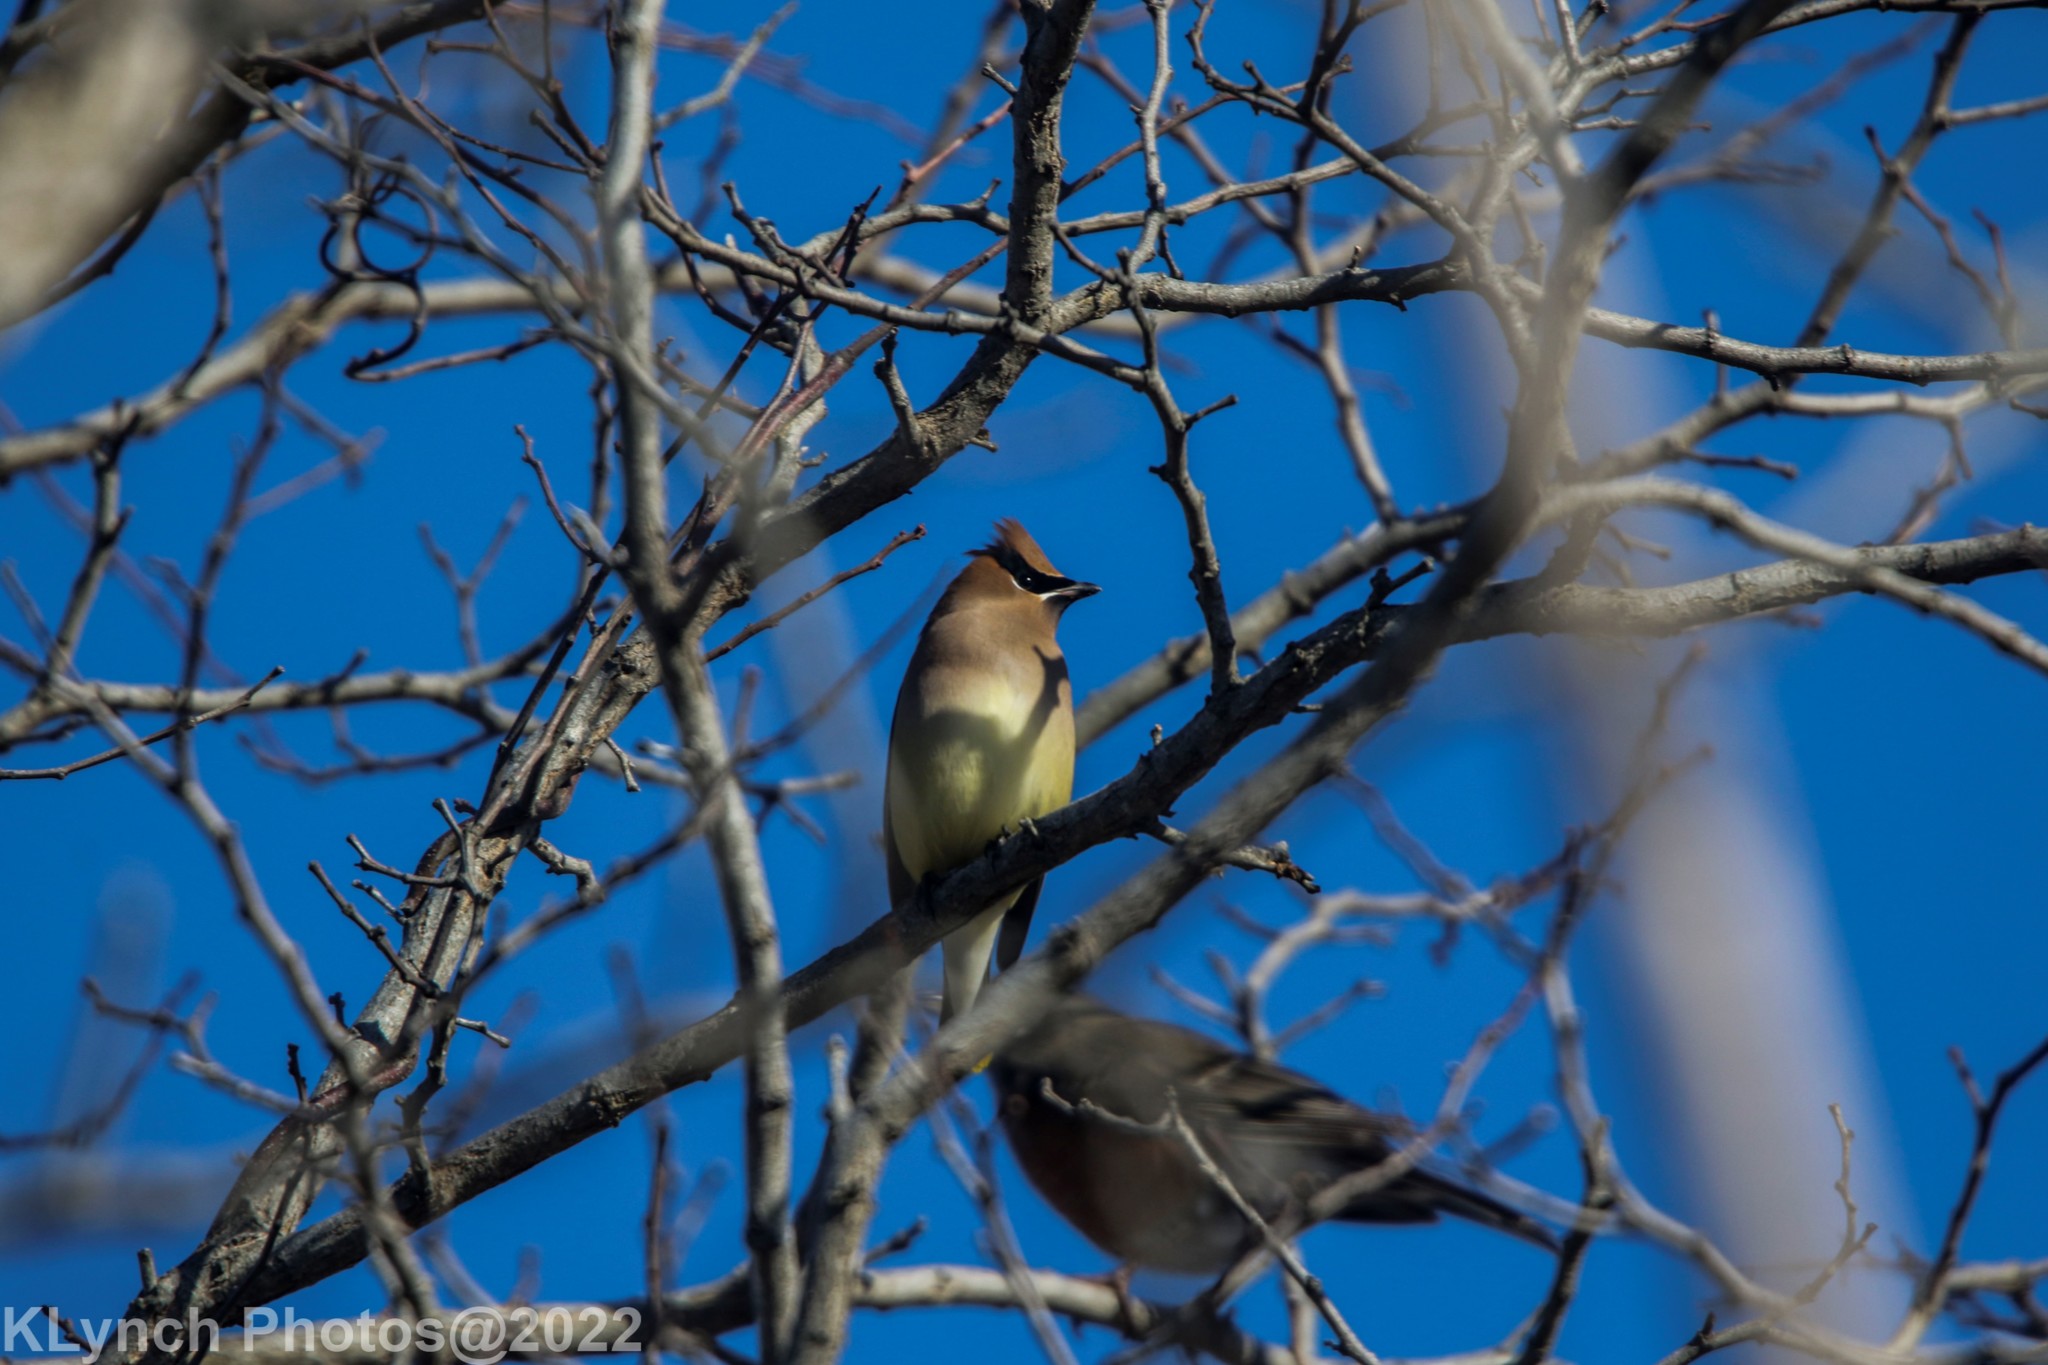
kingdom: Animalia
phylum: Chordata
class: Aves
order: Passeriformes
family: Bombycillidae
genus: Bombycilla
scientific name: Bombycilla cedrorum
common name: Cedar waxwing
